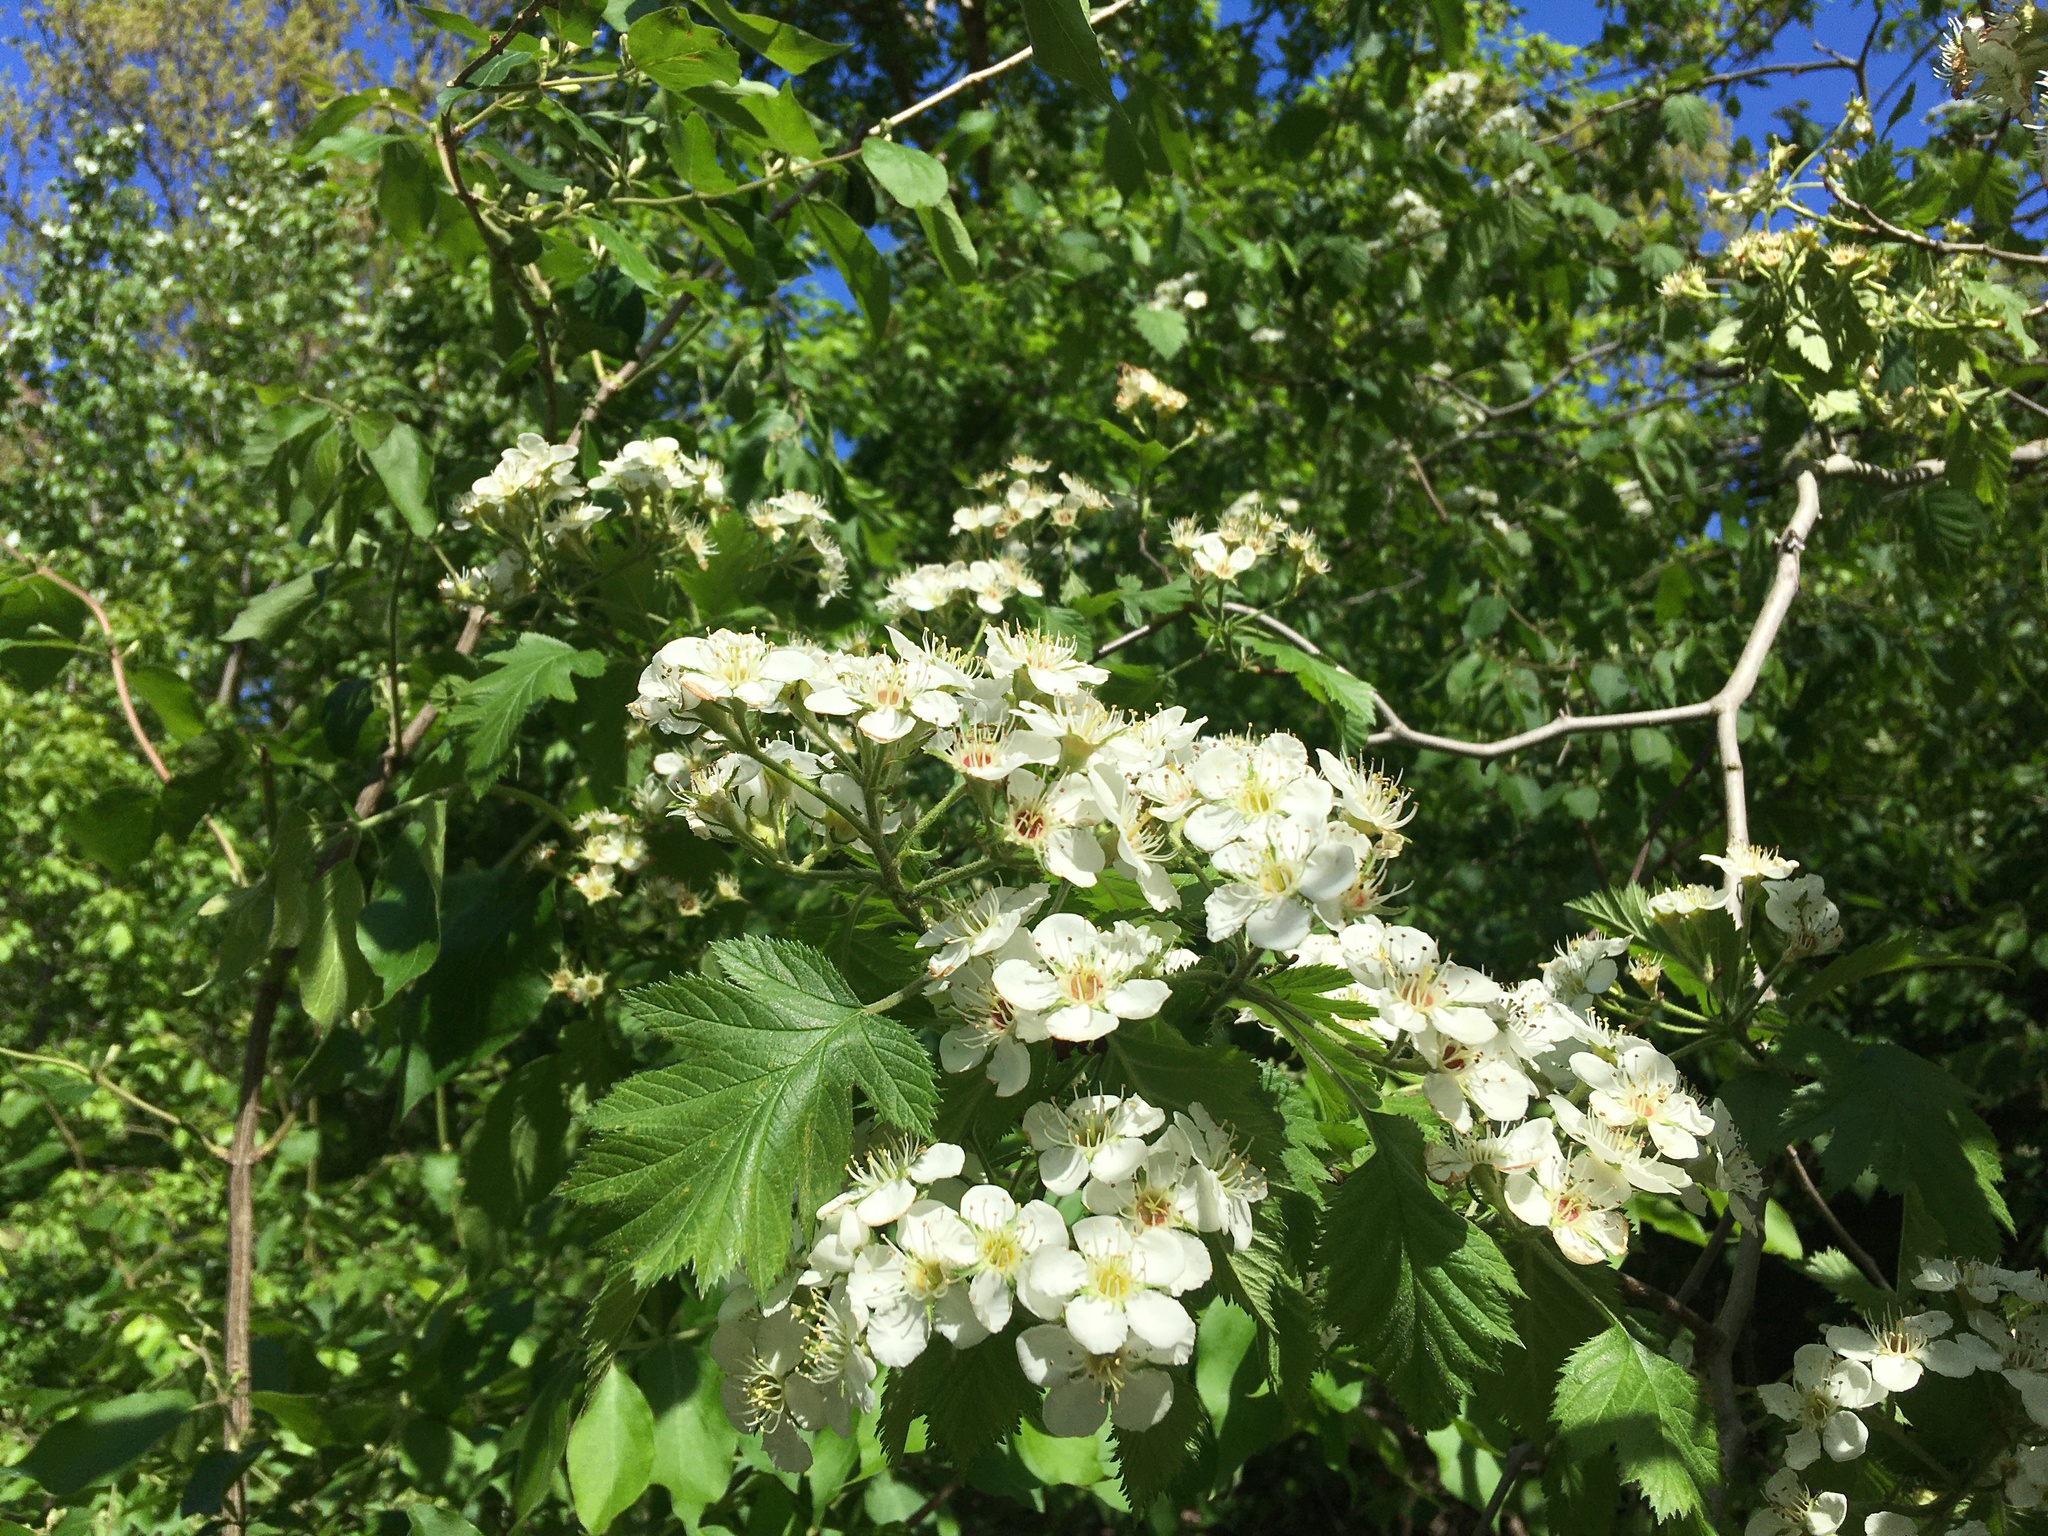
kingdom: Plantae
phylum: Tracheophyta
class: Magnoliopsida
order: Rosales
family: Rosaceae
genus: Crataegus
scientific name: Crataegus mollis
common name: Downy hawthorn
